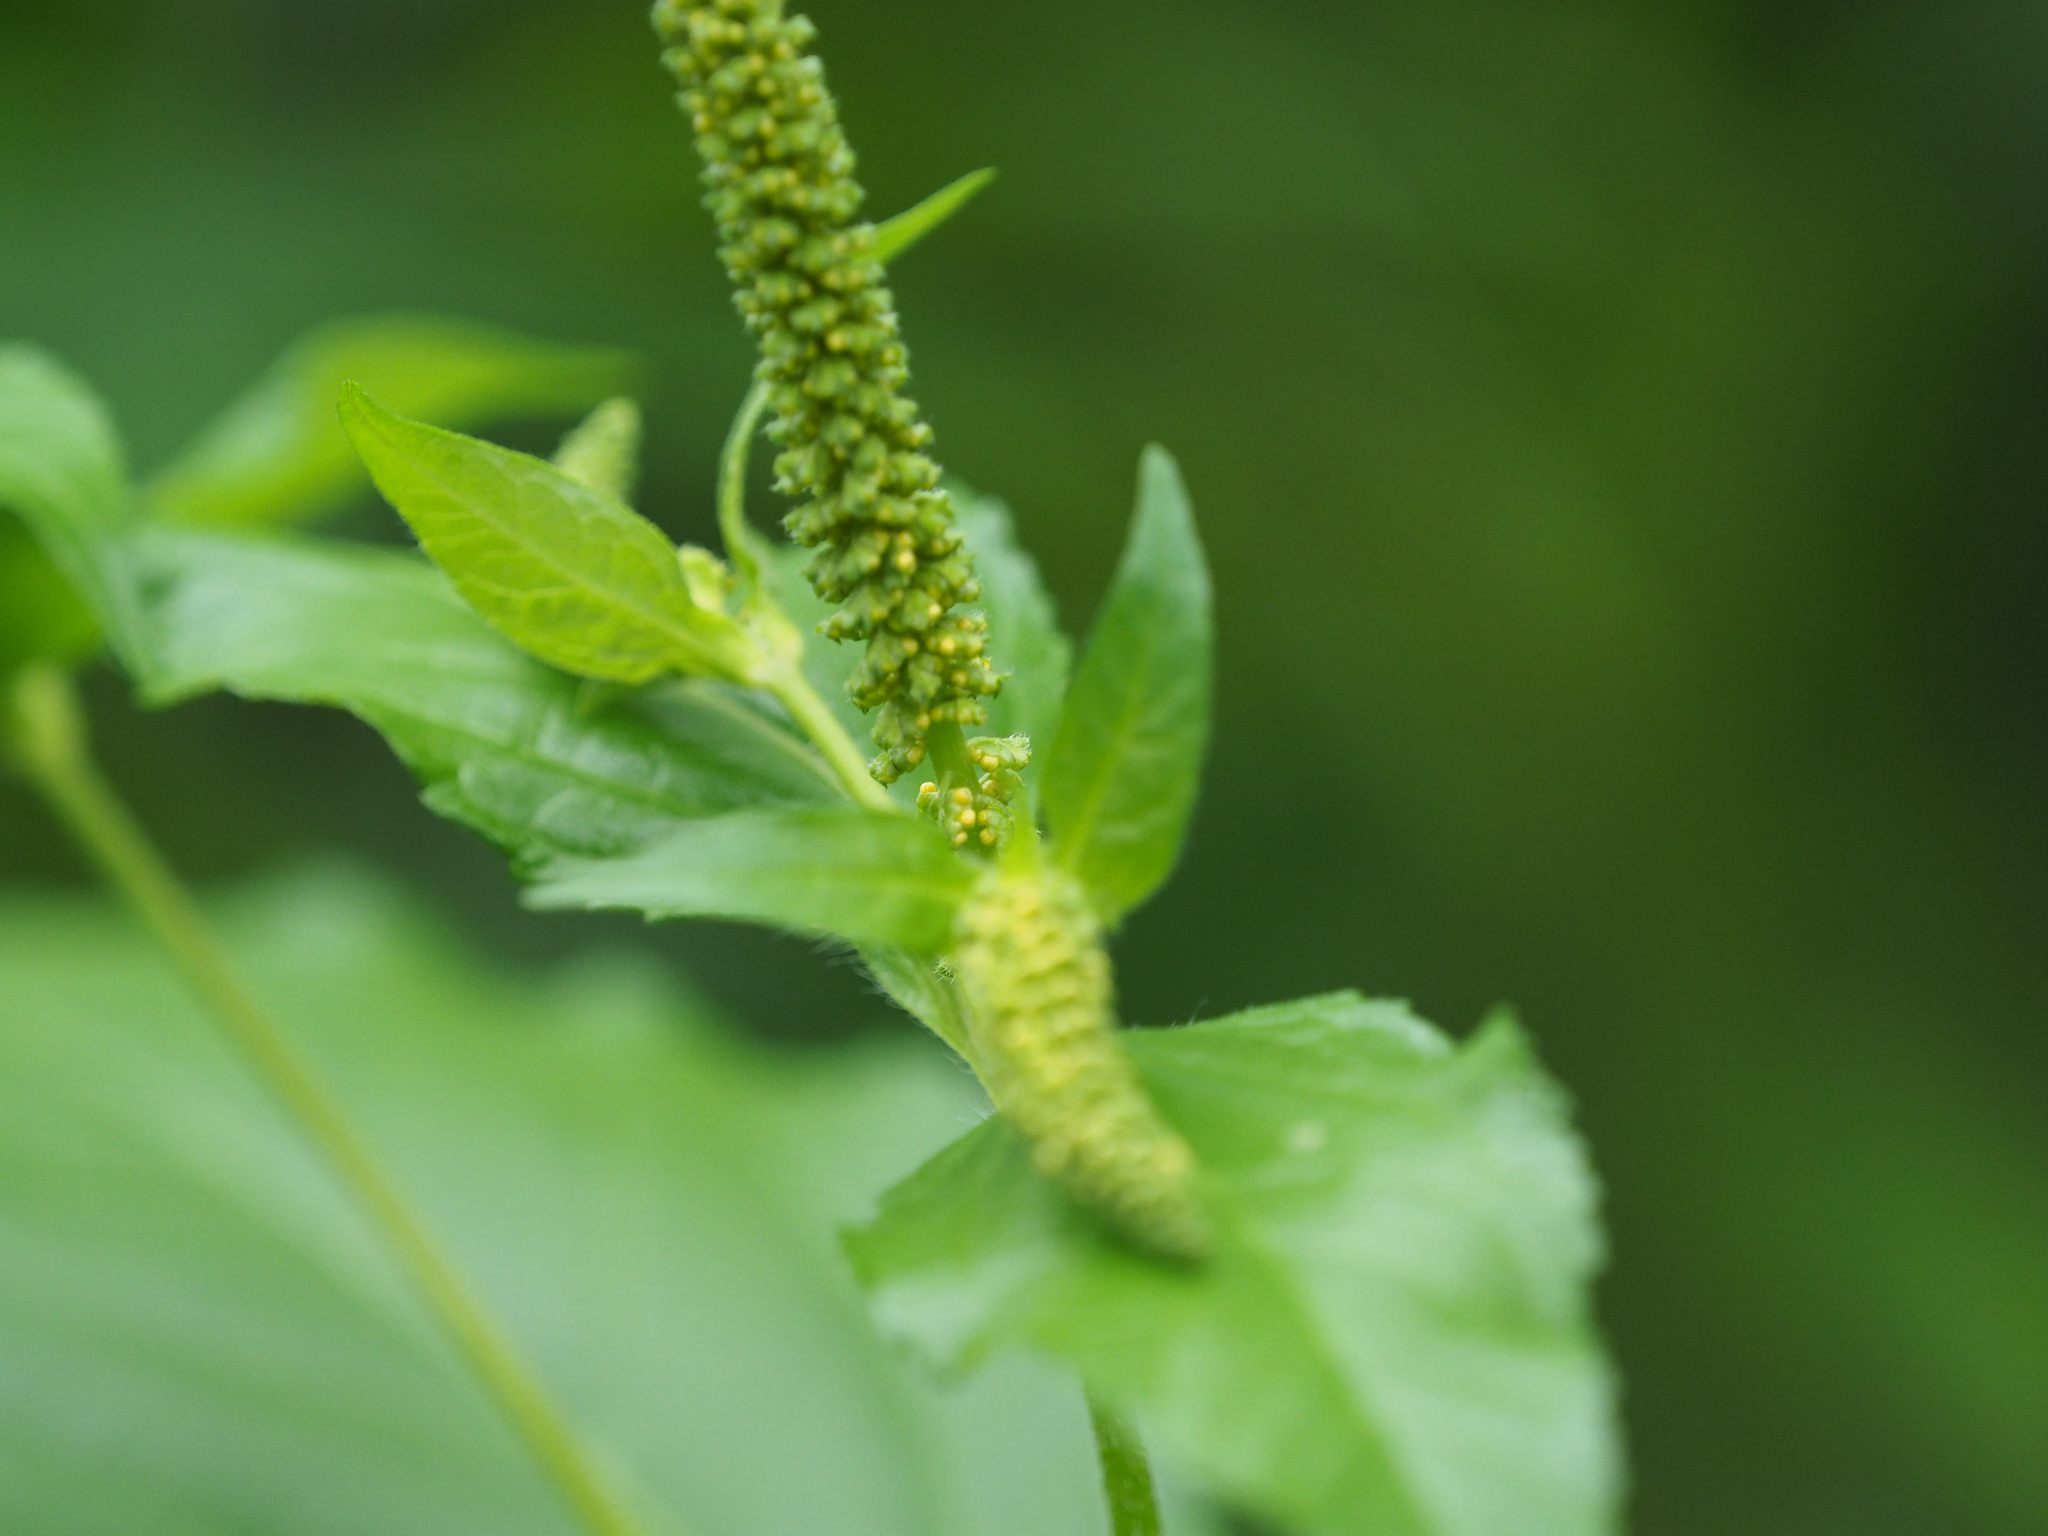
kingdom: Plantae
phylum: Tracheophyta
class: Magnoliopsida
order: Asterales
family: Asteraceae
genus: Ambrosia
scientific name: Ambrosia trifida
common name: Giant ragweed
